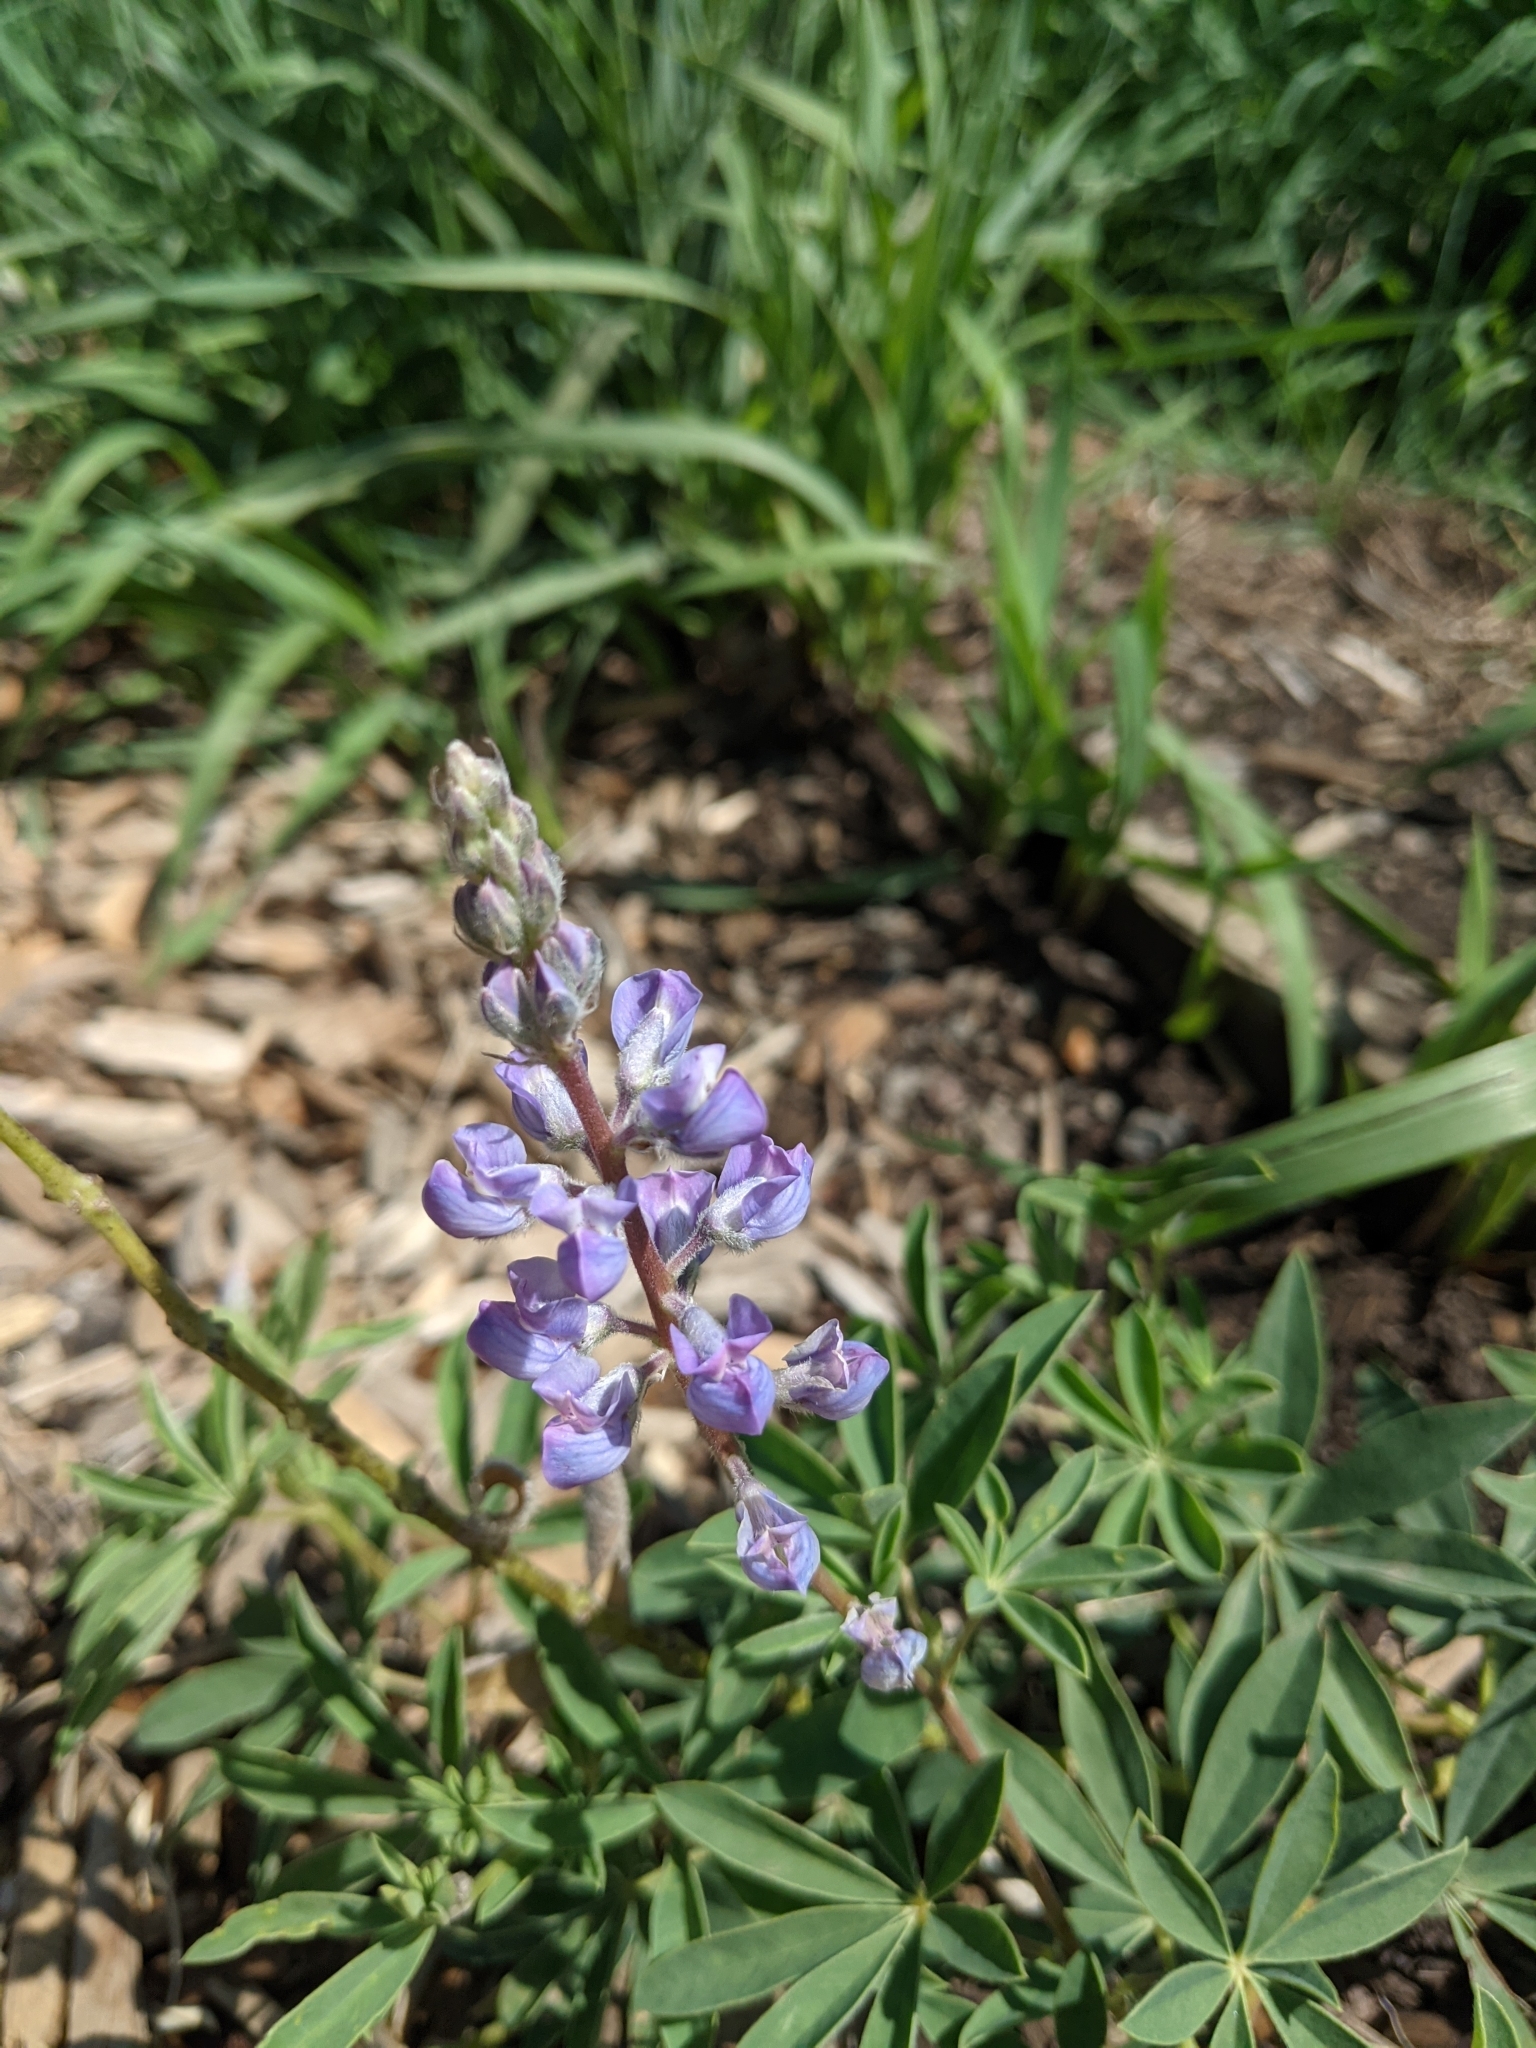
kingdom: Plantae
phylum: Tracheophyta
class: Magnoliopsida
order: Fabales
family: Fabaceae
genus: Lupinus
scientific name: Lupinus argenteus
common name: Silvery lupine
